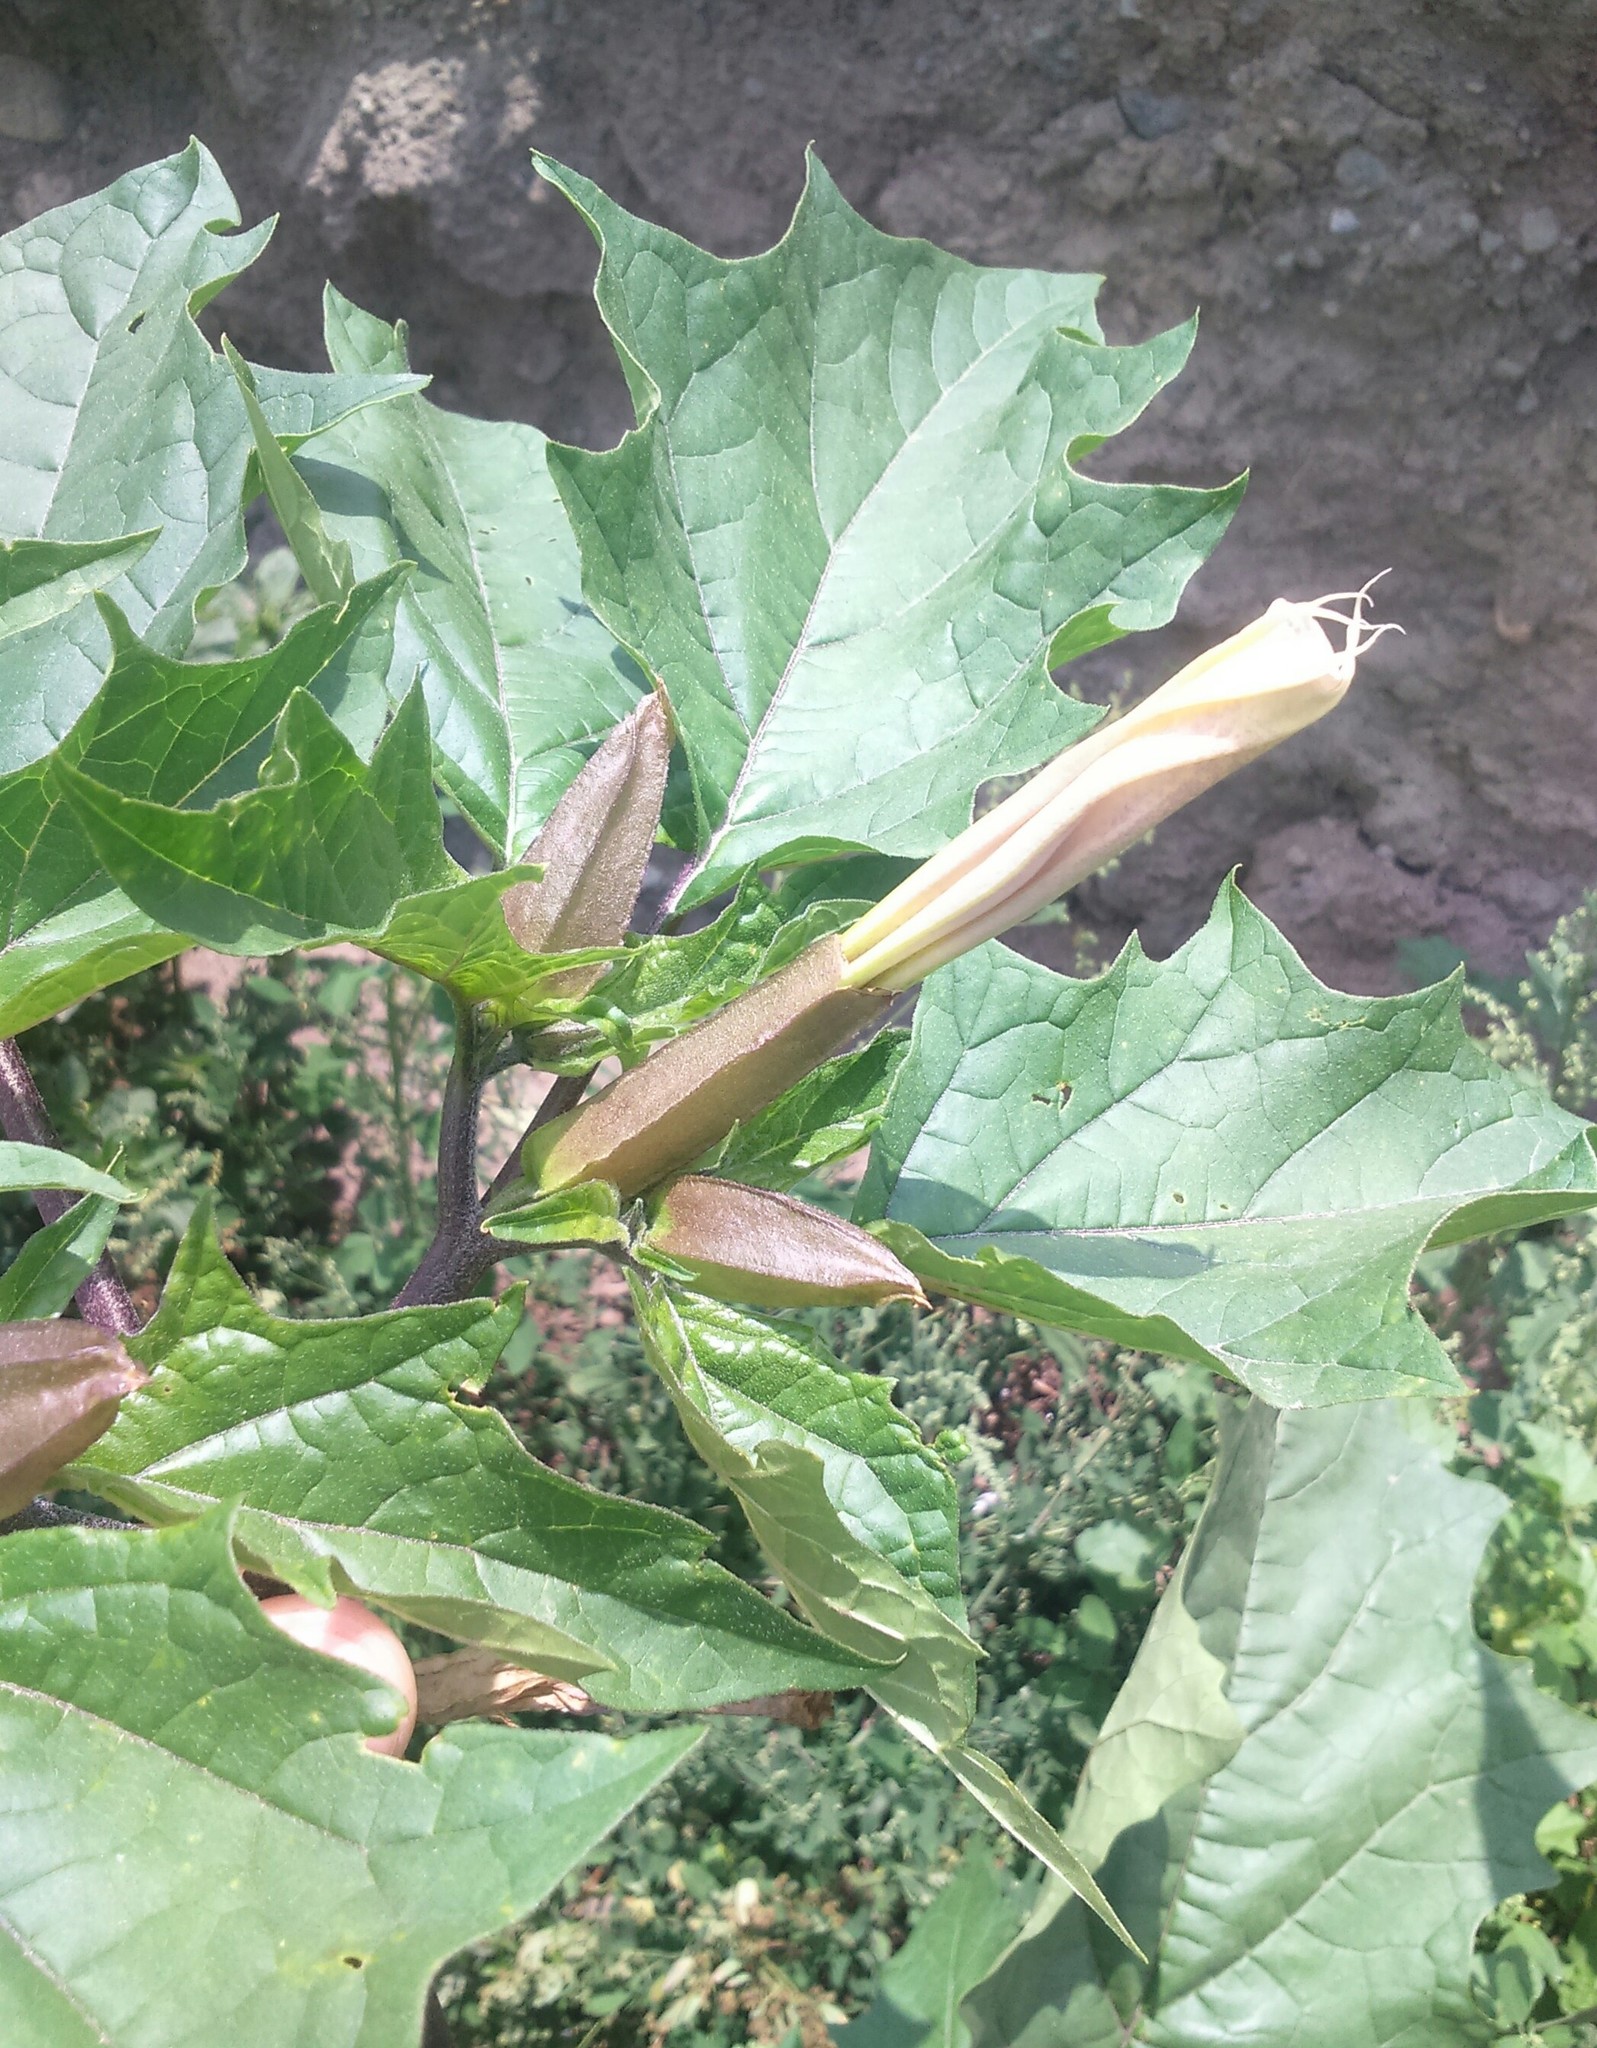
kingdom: Plantae
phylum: Tracheophyta
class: Magnoliopsida
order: Solanales
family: Solanaceae
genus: Datura
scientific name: Datura stramonium
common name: Thorn-apple
